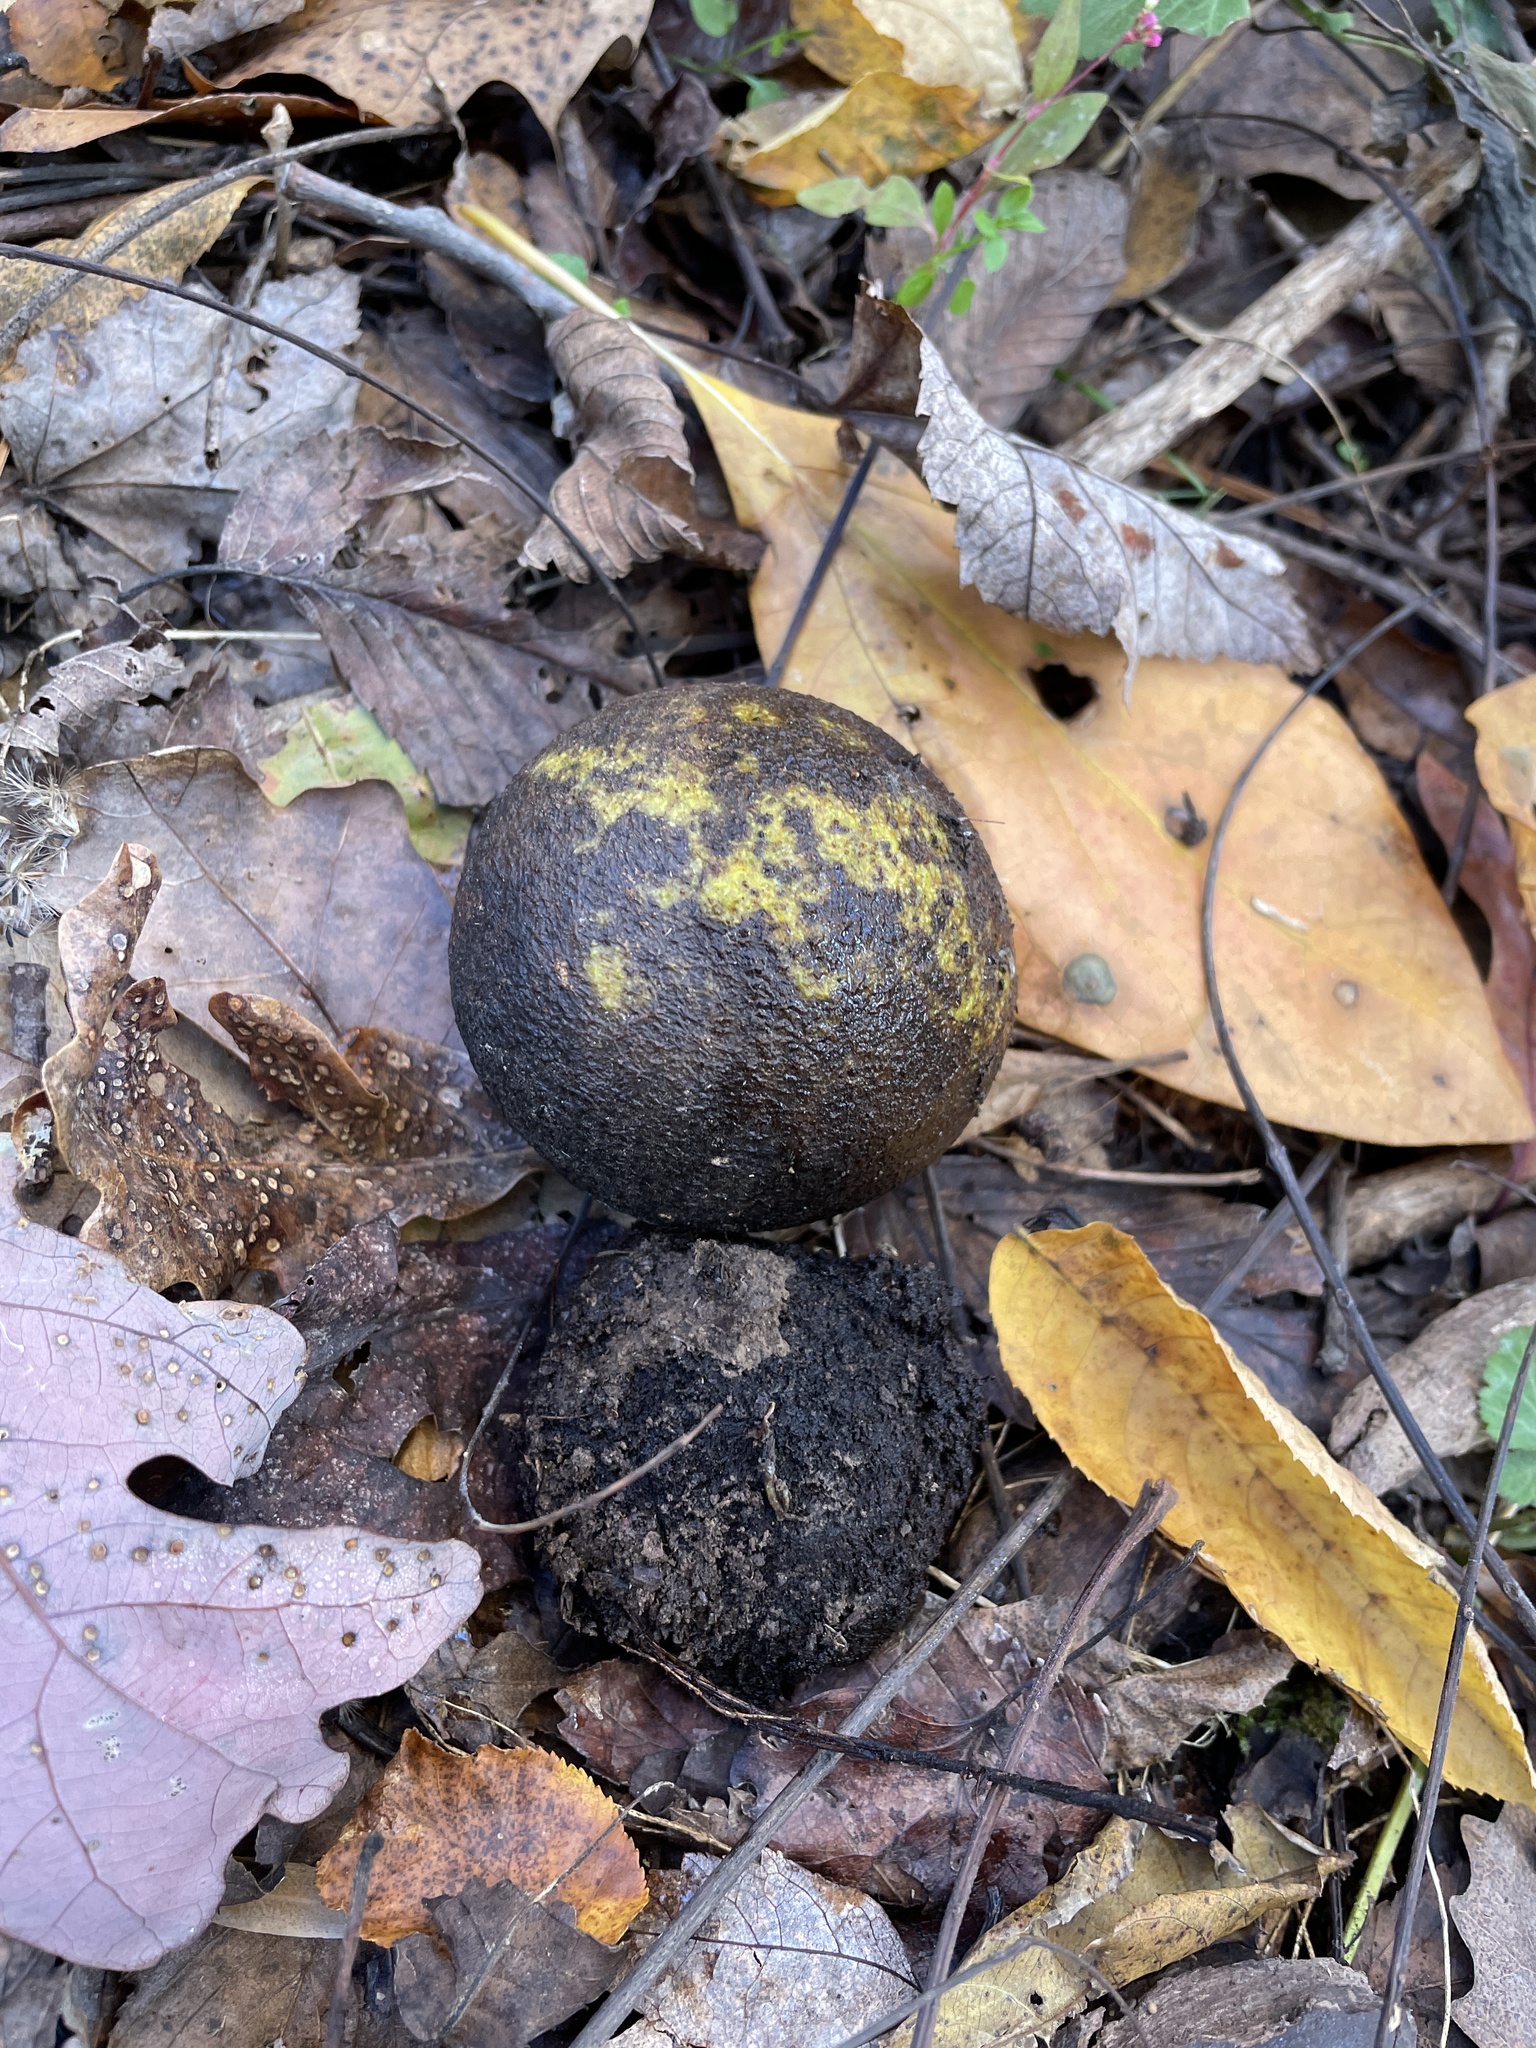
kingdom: Plantae
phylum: Tracheophyta
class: Magnoliopsida
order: Fagales
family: Juglandaceae
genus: Juglans
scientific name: Juglans nigra
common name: Black walnut
